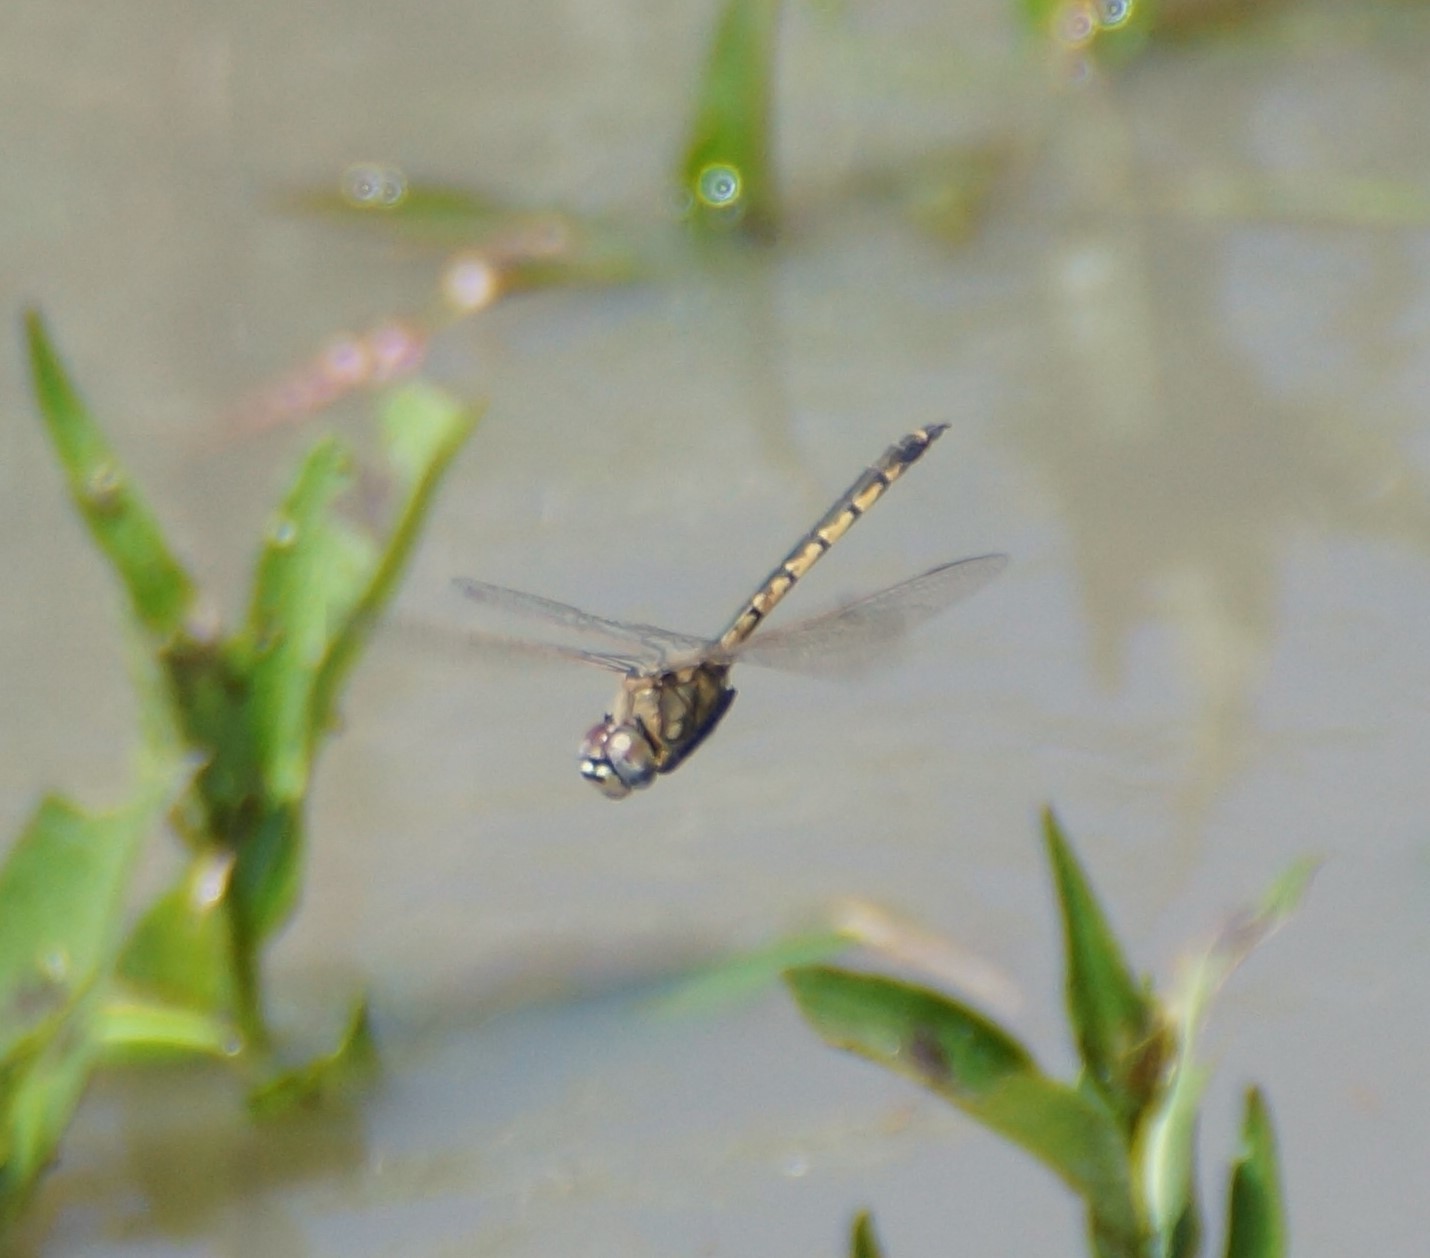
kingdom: Animalia
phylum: Arthropoda
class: Insecta
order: Odonata
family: Corduliidae
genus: Hemicordulia
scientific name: Hemicordulia tau
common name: Tau emerald
